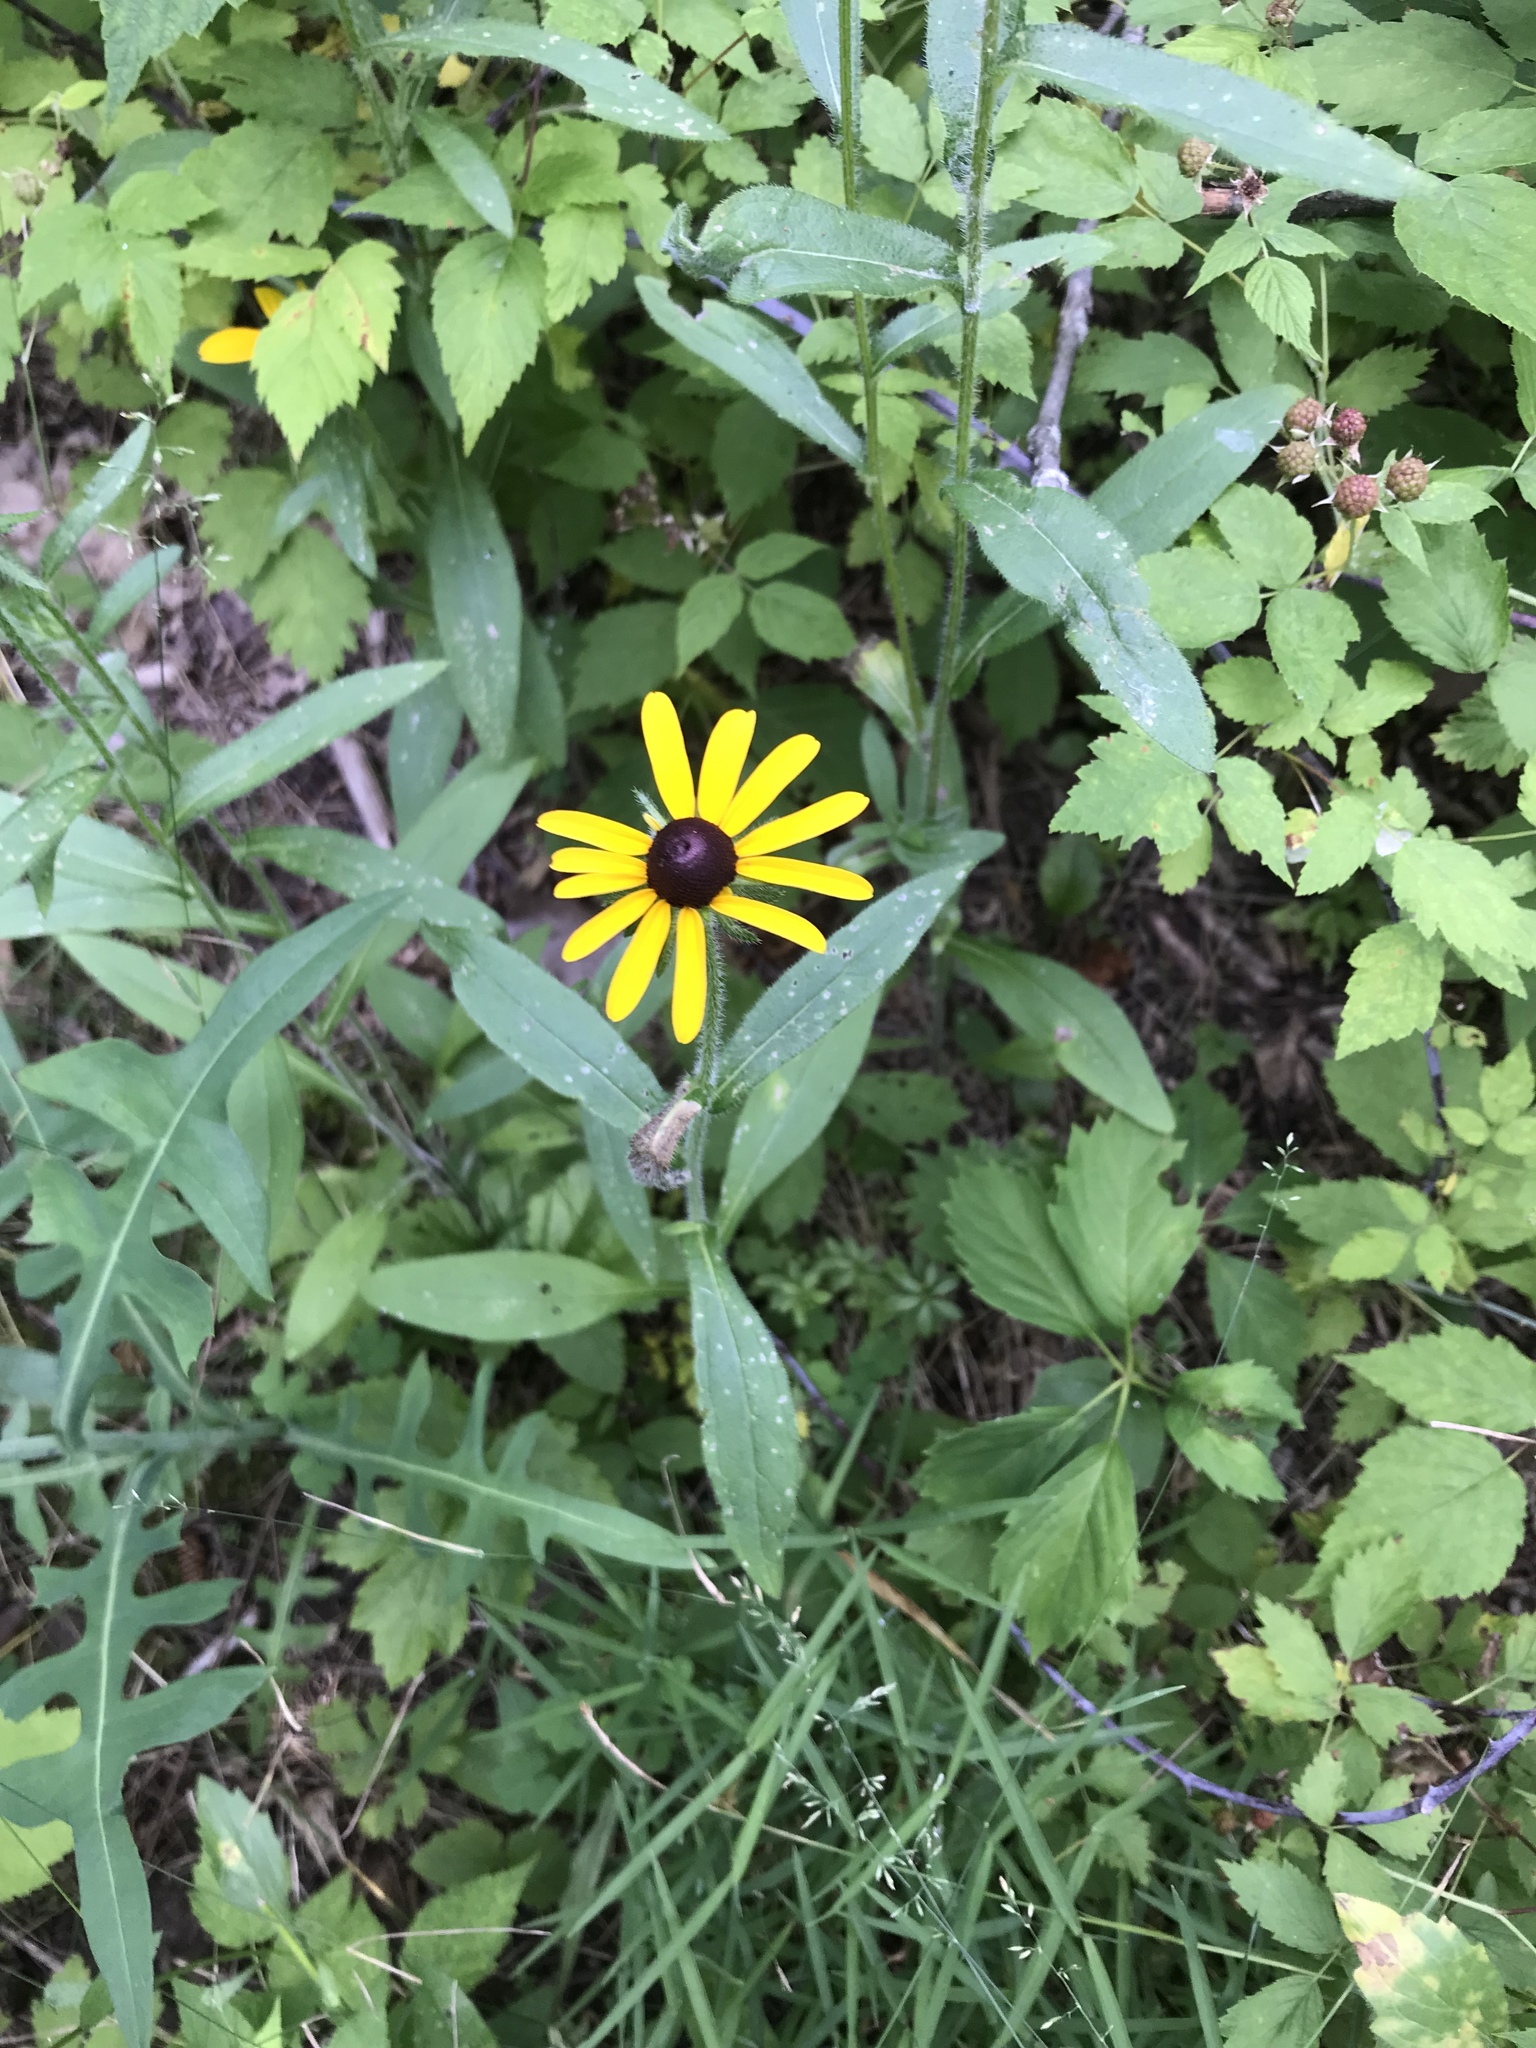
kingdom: Plantae
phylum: Tracheophyta
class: Magnoliopsida
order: Asterales
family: Asteraceae
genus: Rudbeckia
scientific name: Rudbeckia hirta
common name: Black-eyed-susan
